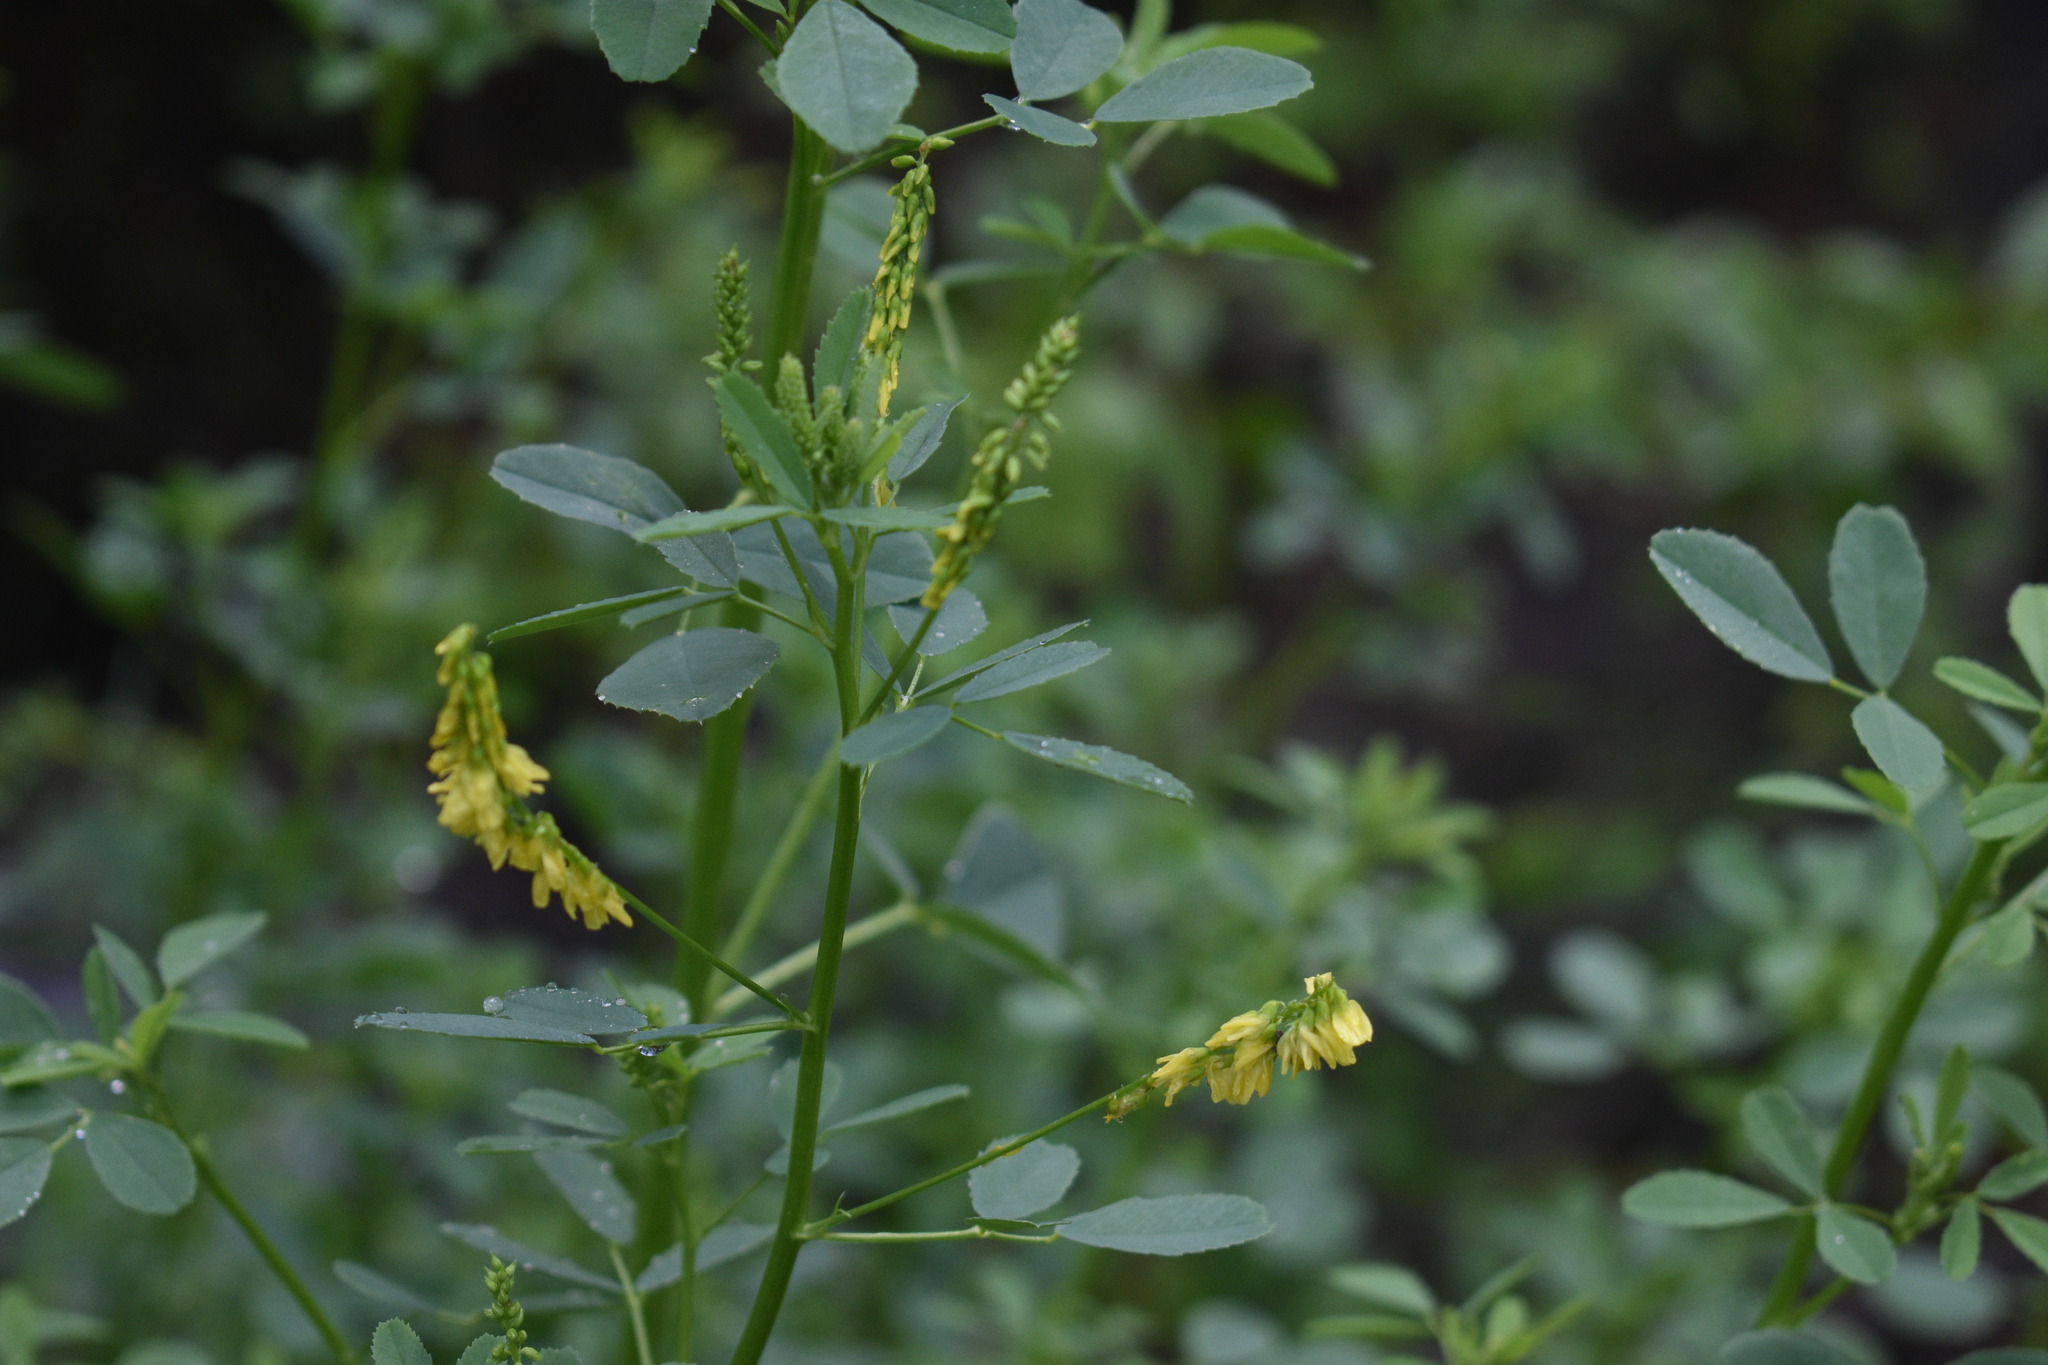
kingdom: Plantae
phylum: Tracheophyta
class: Magnoliopsida
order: Fabales
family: Fabaceae
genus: Melilotus
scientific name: Melilotus officinalis
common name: Sweetclover
